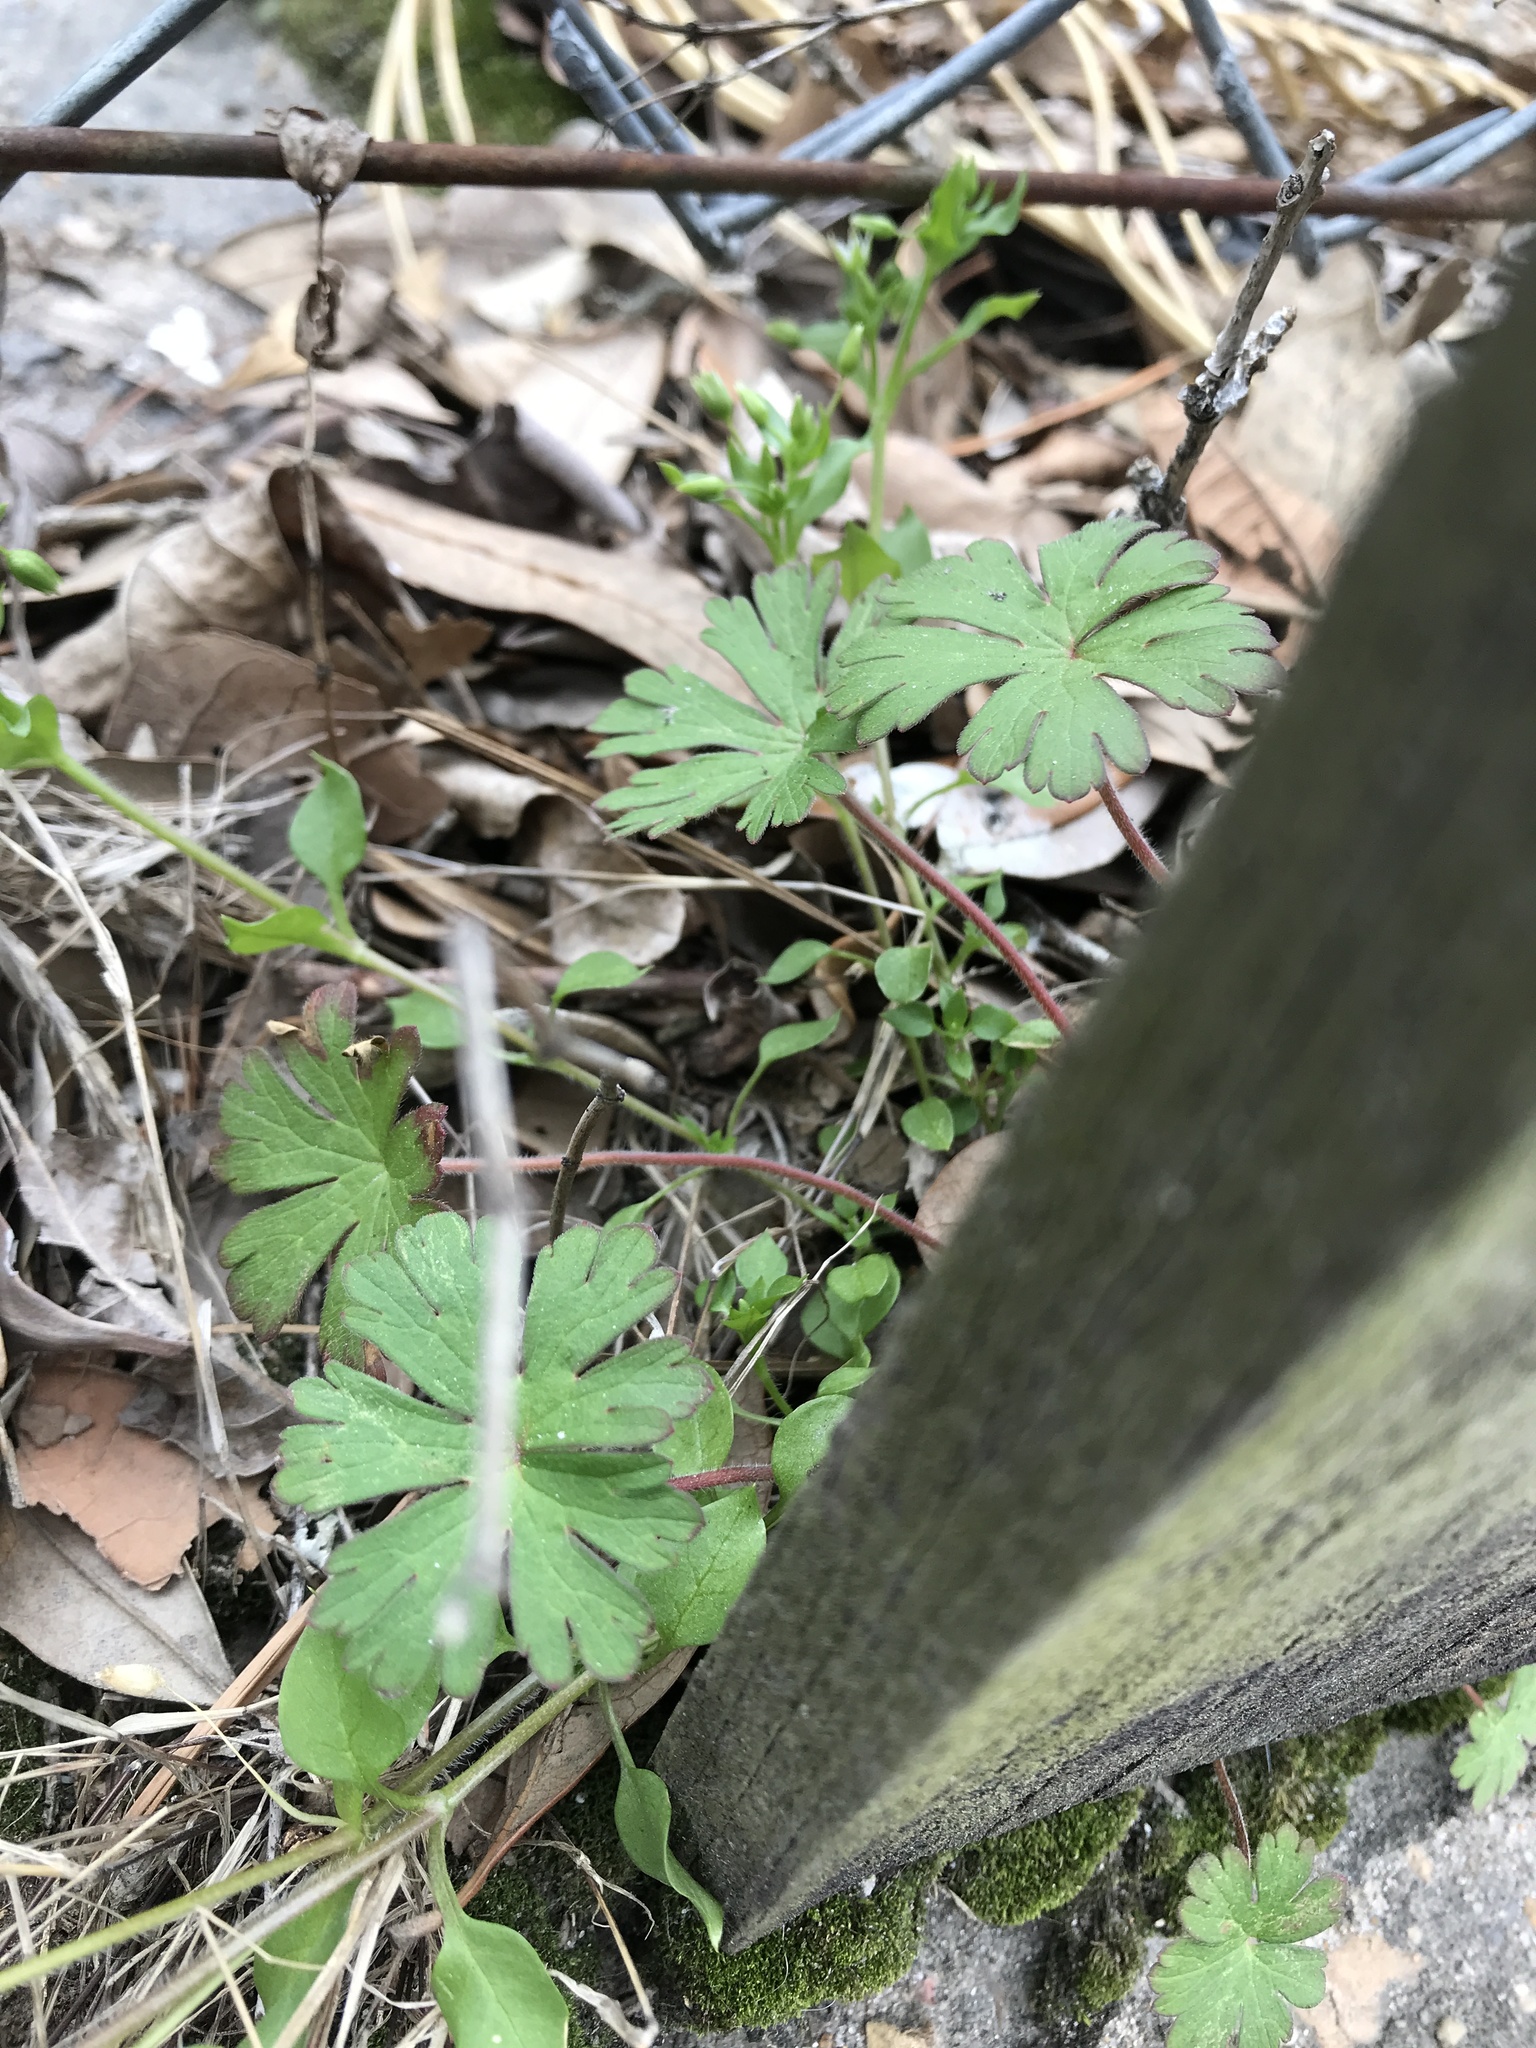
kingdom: Plantae
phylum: Tracheophyta
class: Magnoliopsida
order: Geraniales
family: Geraniaceae
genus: Geranium
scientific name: Geranium carolinianum
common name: Carolina crane's-bill
